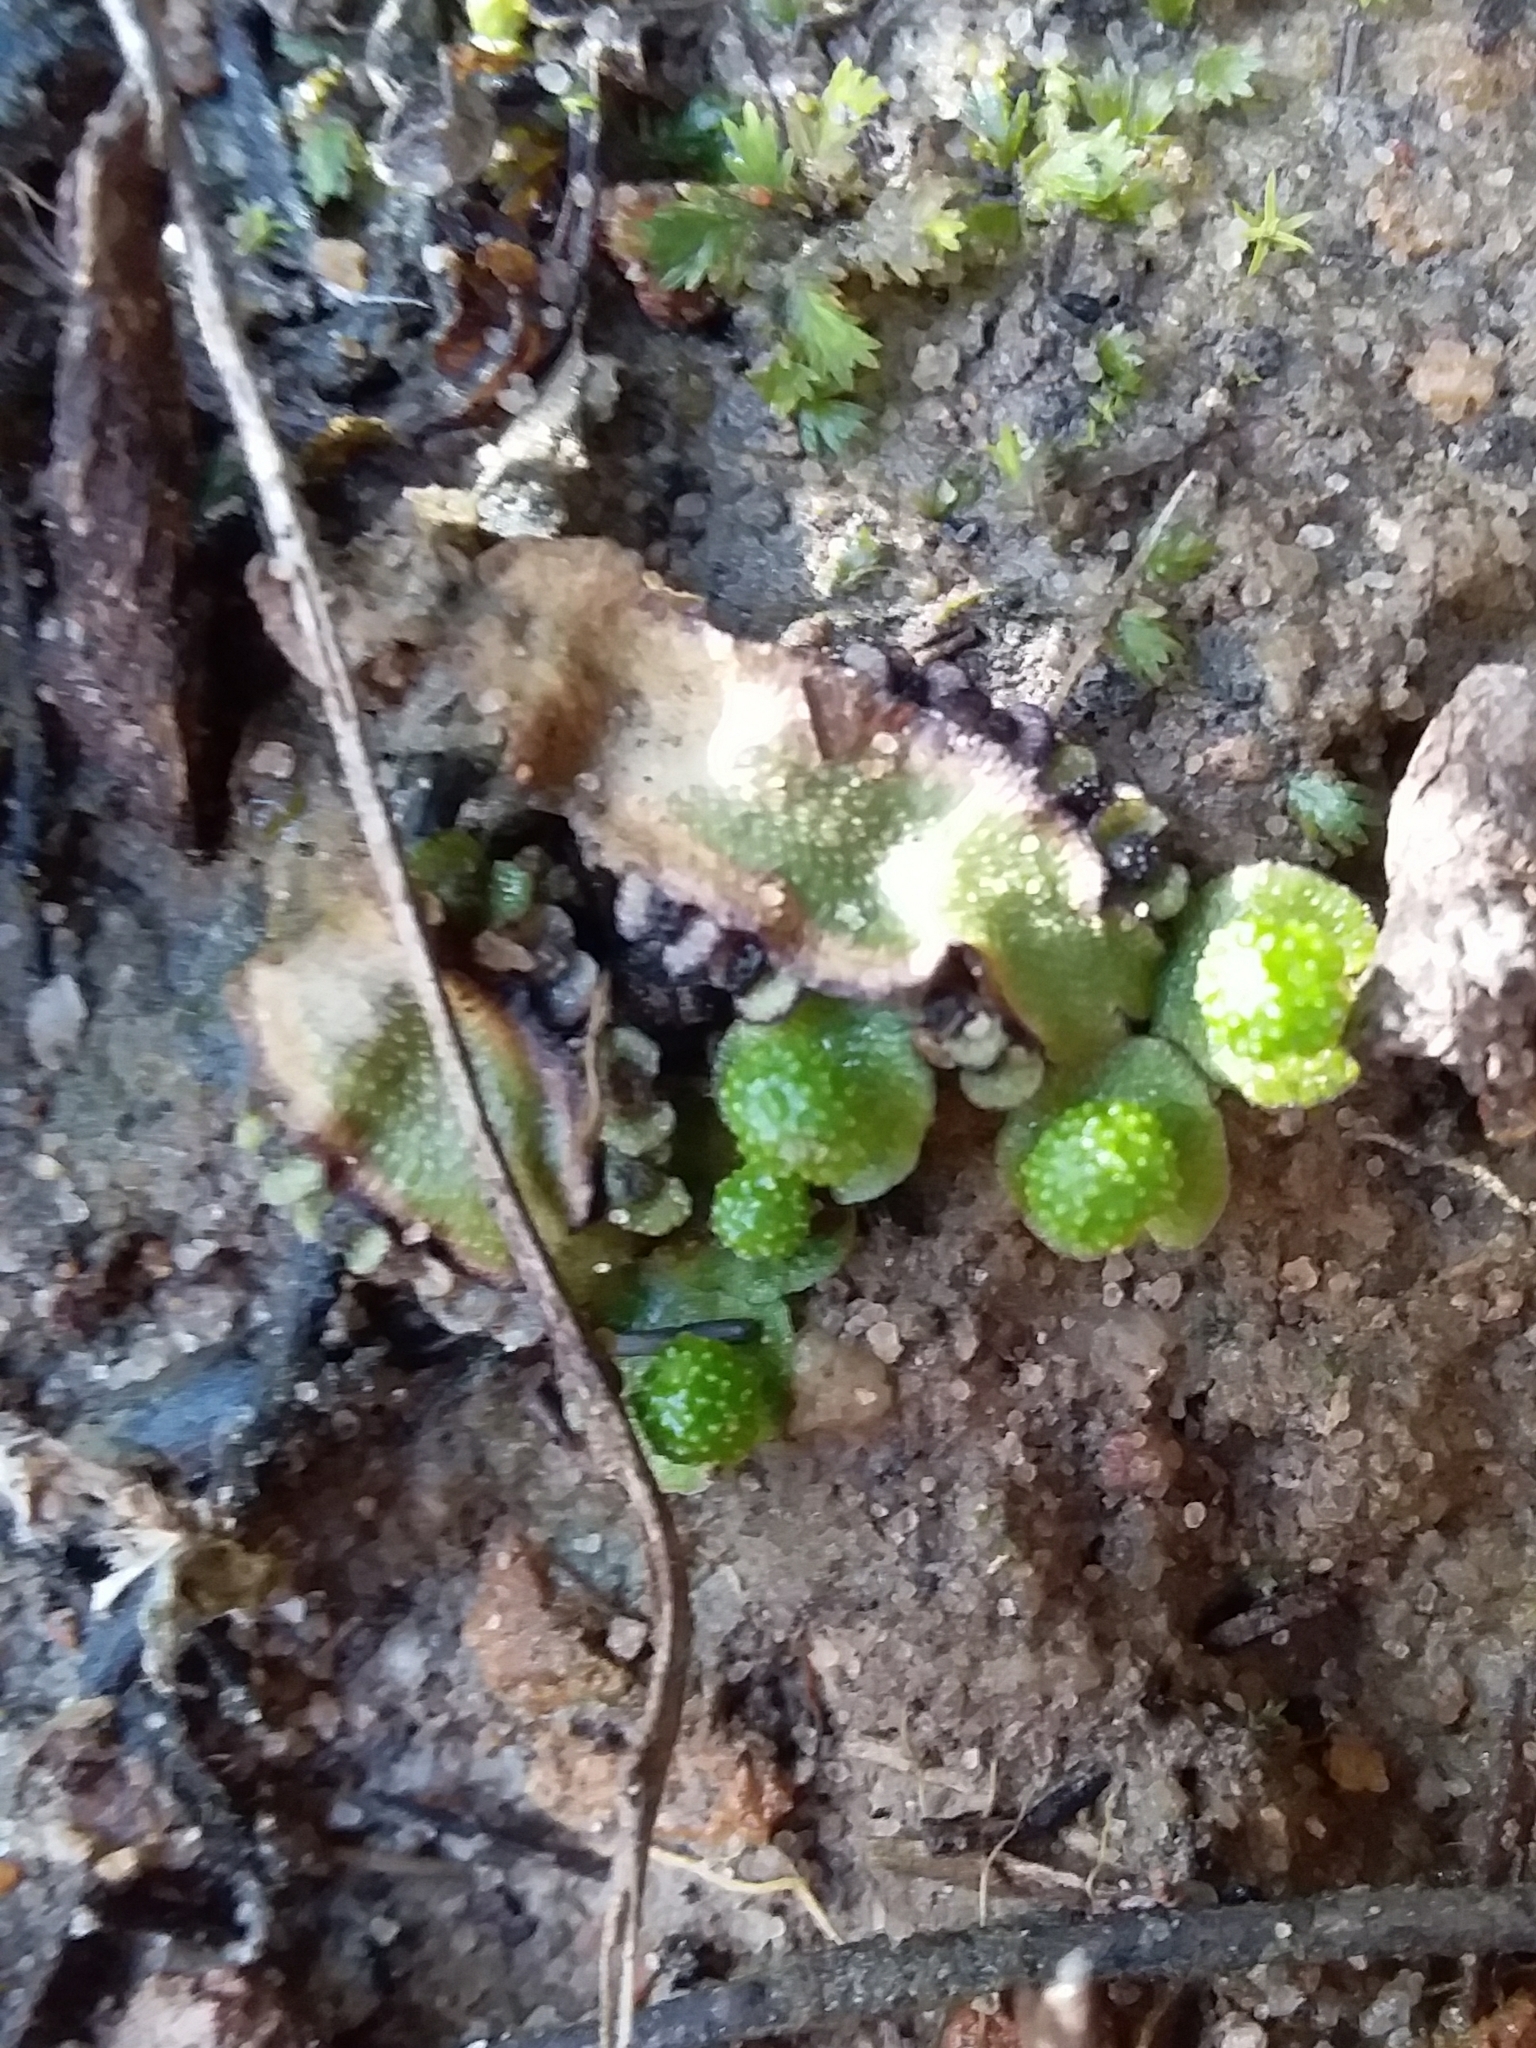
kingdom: Plantae
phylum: Marchantiophyta
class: Marchantiopsida
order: Marchantiales
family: Aytoniaceae
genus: Asterella
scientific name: Asterella drummondii
